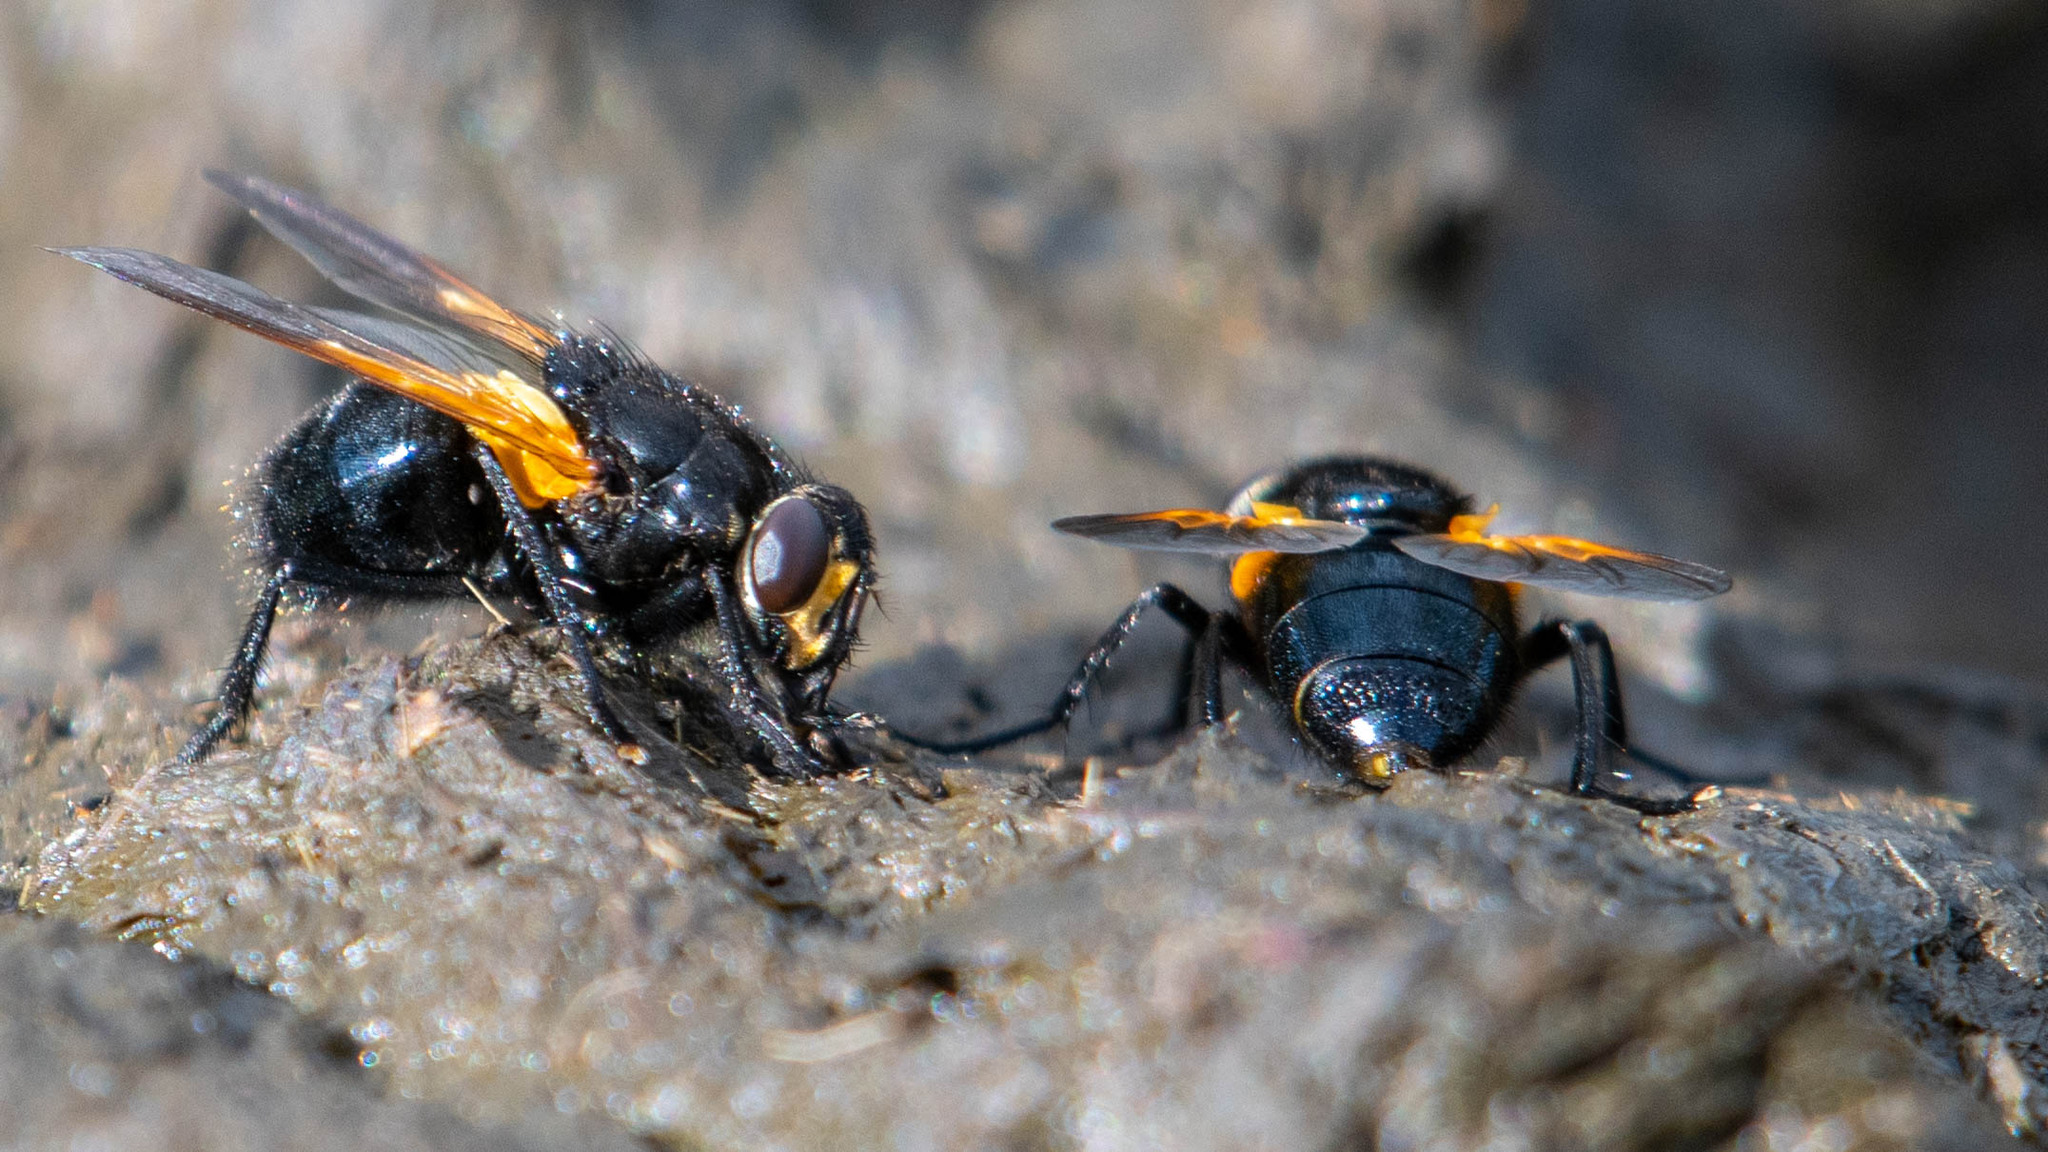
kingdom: Animalia
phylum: Arthropoda
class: Insecta
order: Diptera
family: Muscidae
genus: Mesembrina
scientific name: Mesembrina meridiana
